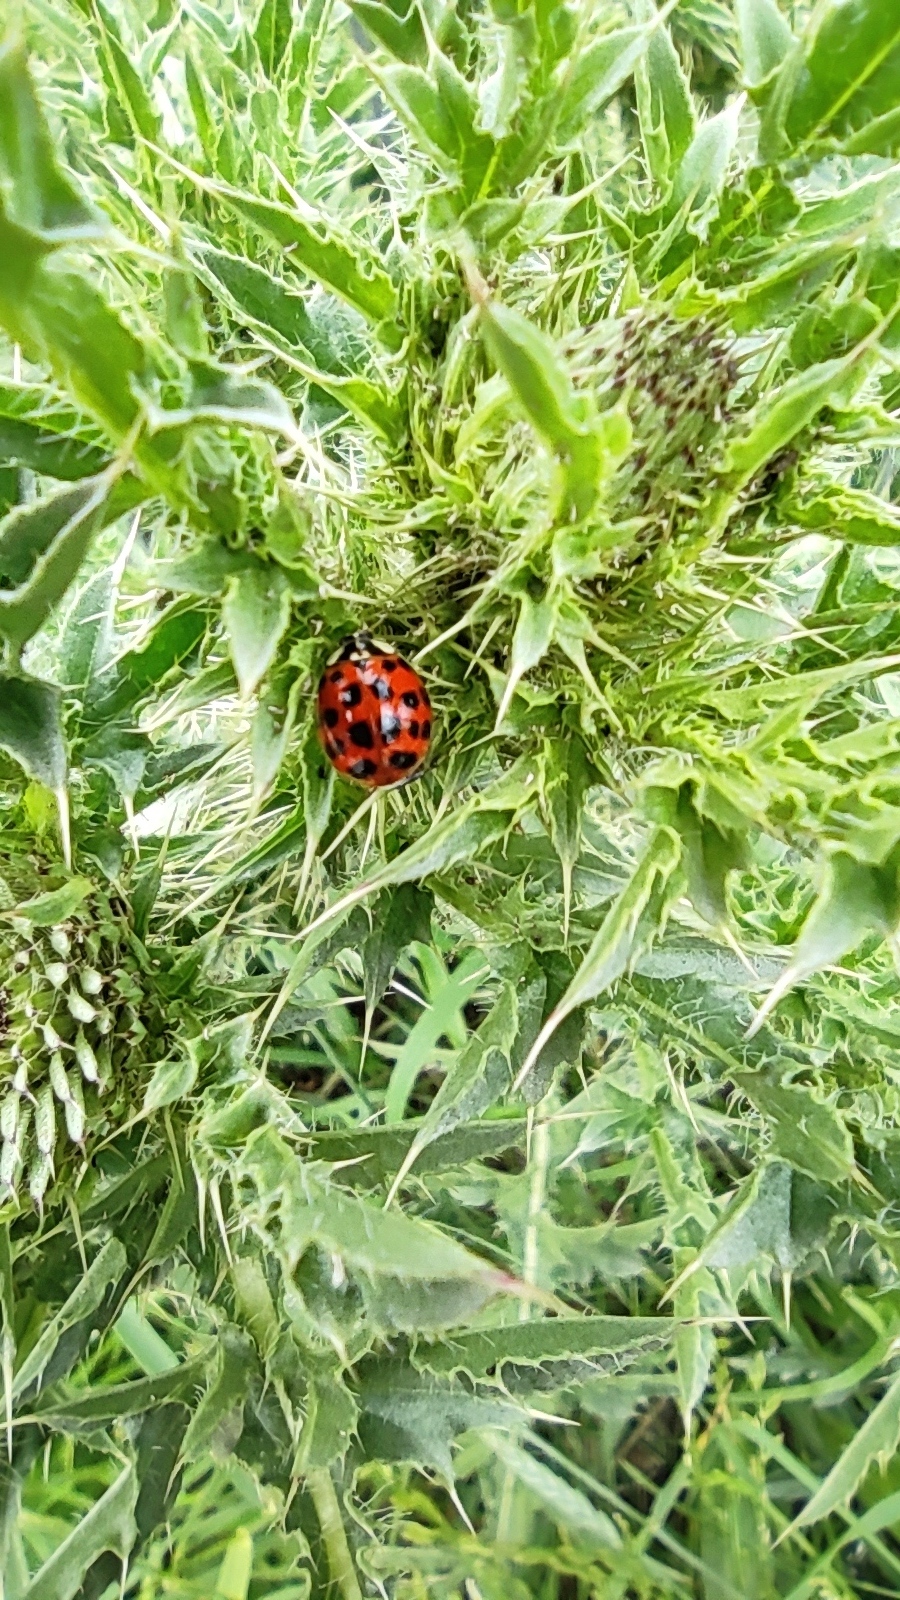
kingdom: Animalia
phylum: Arthropoda
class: Insecta
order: Coleoptera
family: Coccinellidae
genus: Harmonia
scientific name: Harmonia axyridis
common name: Harlequin ladybird
